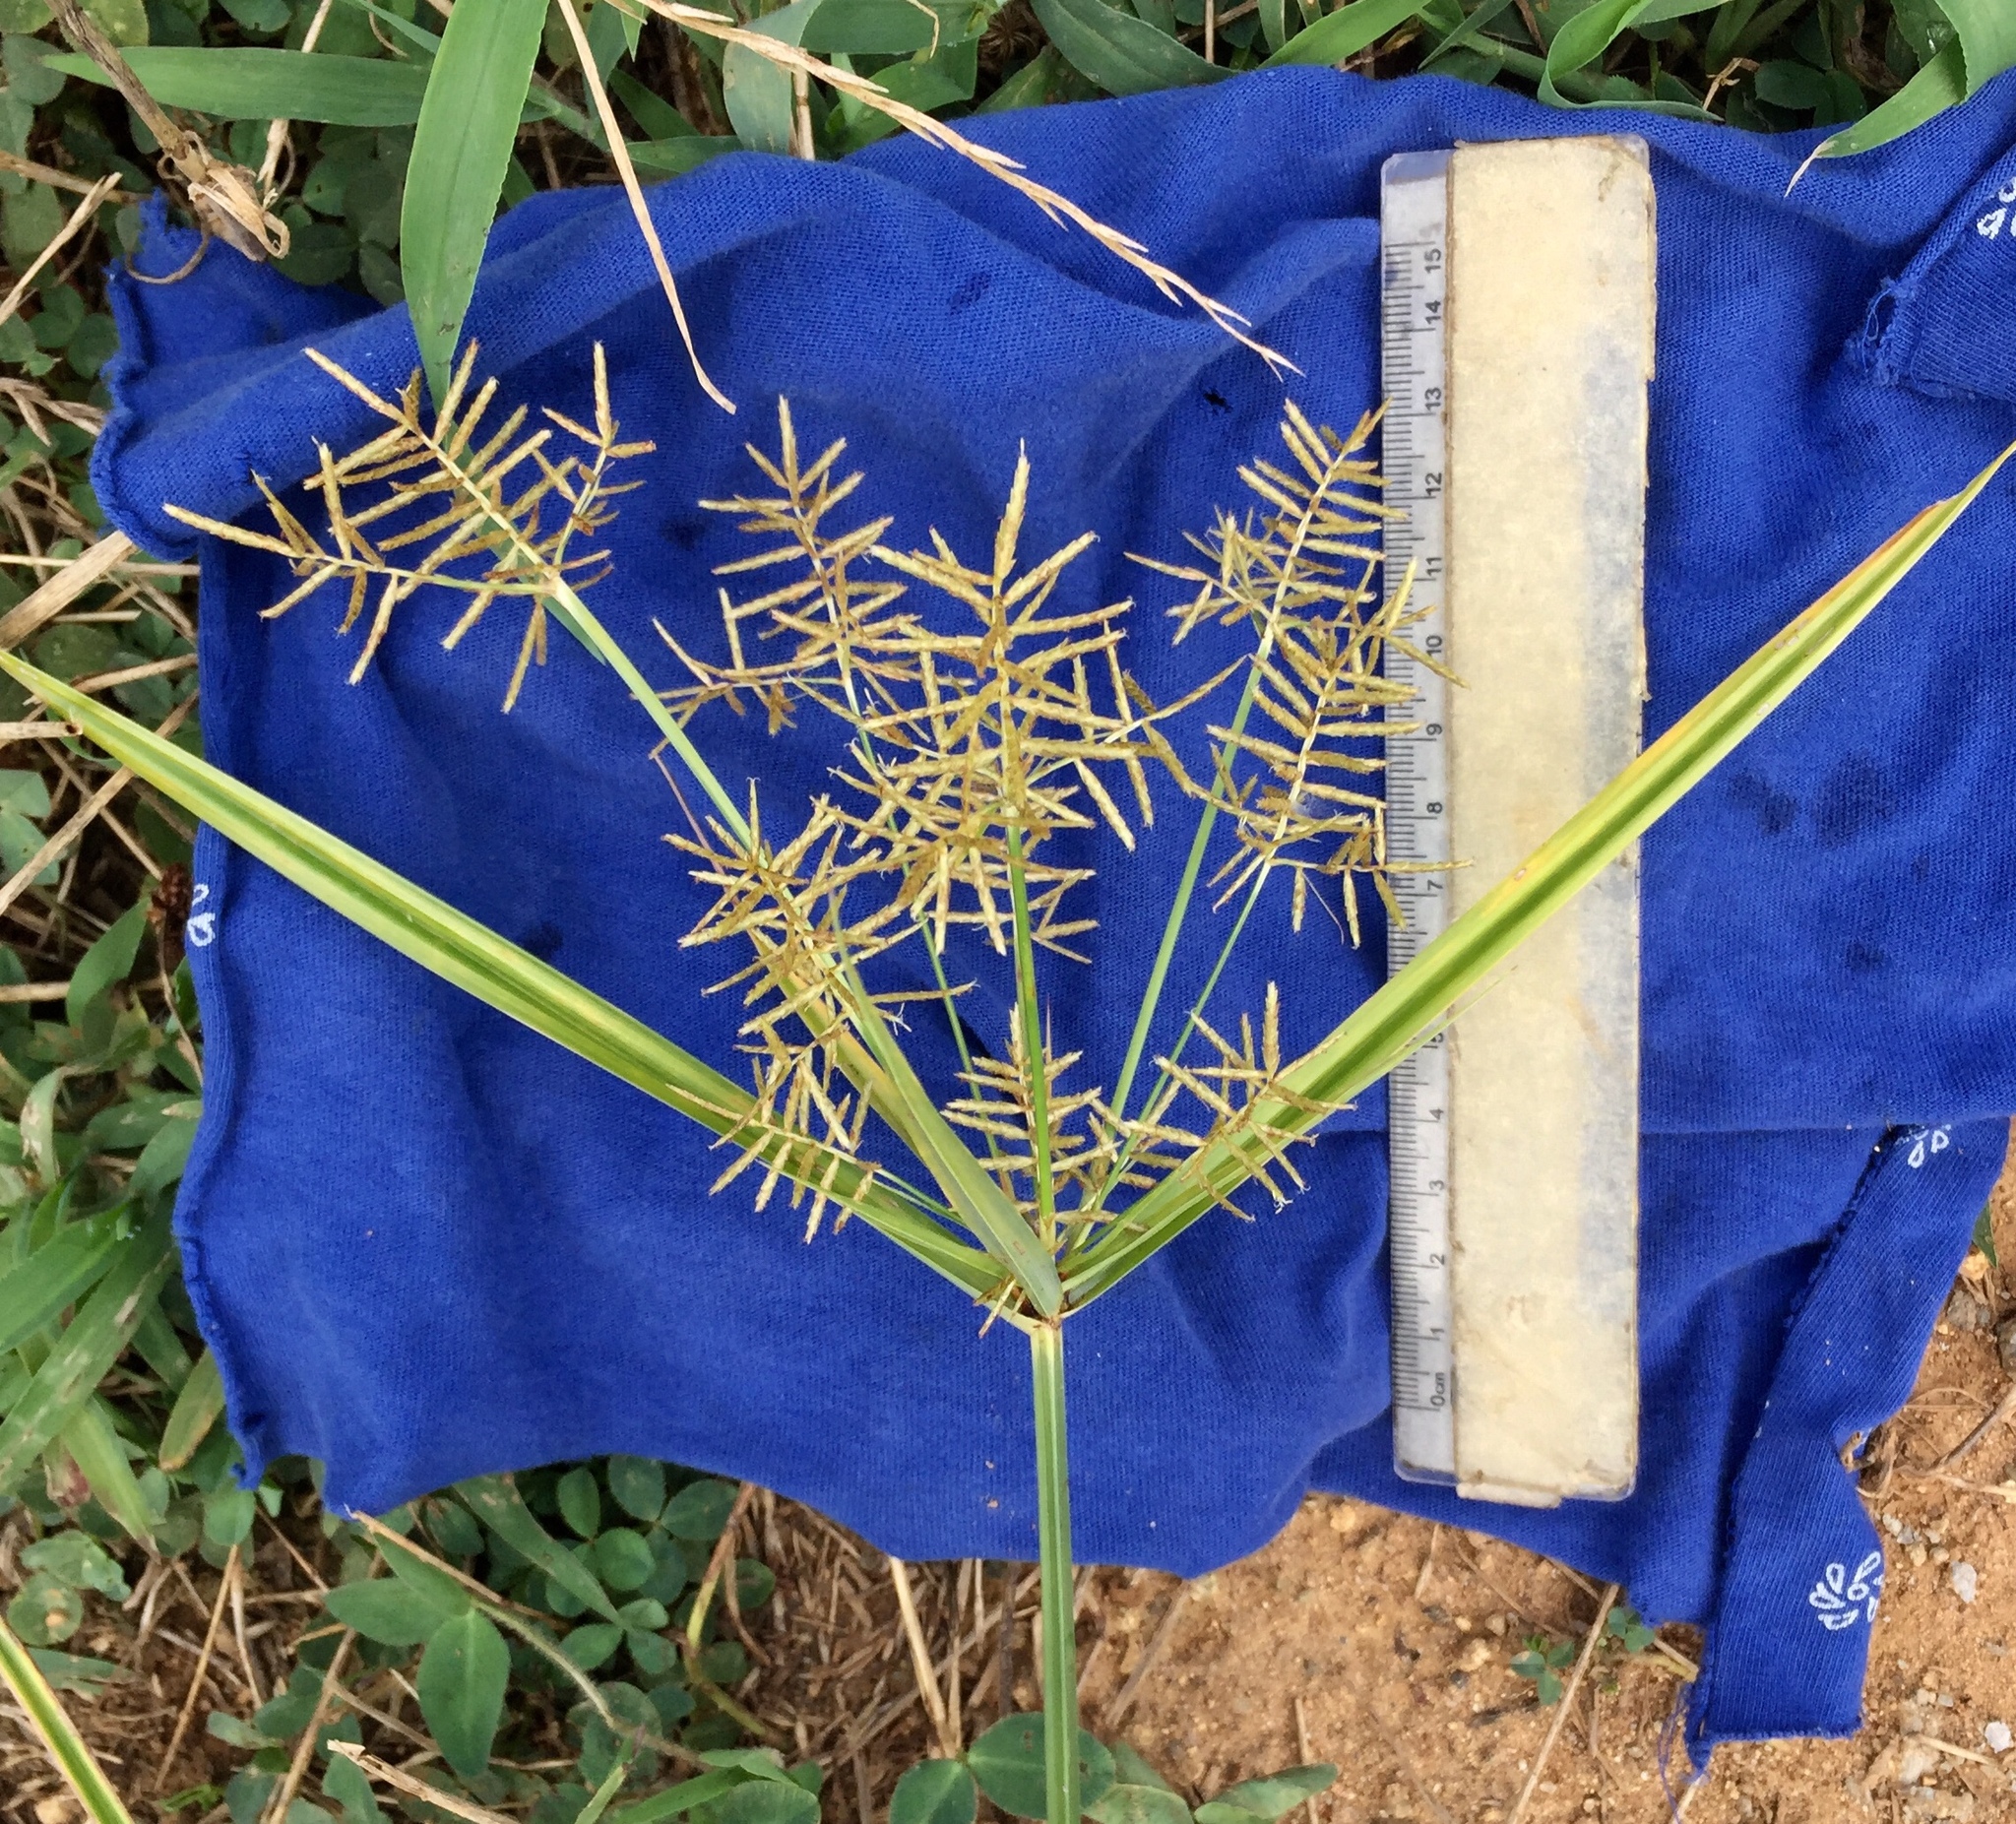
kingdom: Plantae
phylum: Tracheophyta
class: Liliopsida
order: Poales
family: Cyperaceae
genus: Cyperus
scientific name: Cyperus esculentus
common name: Yellow nutsedge
